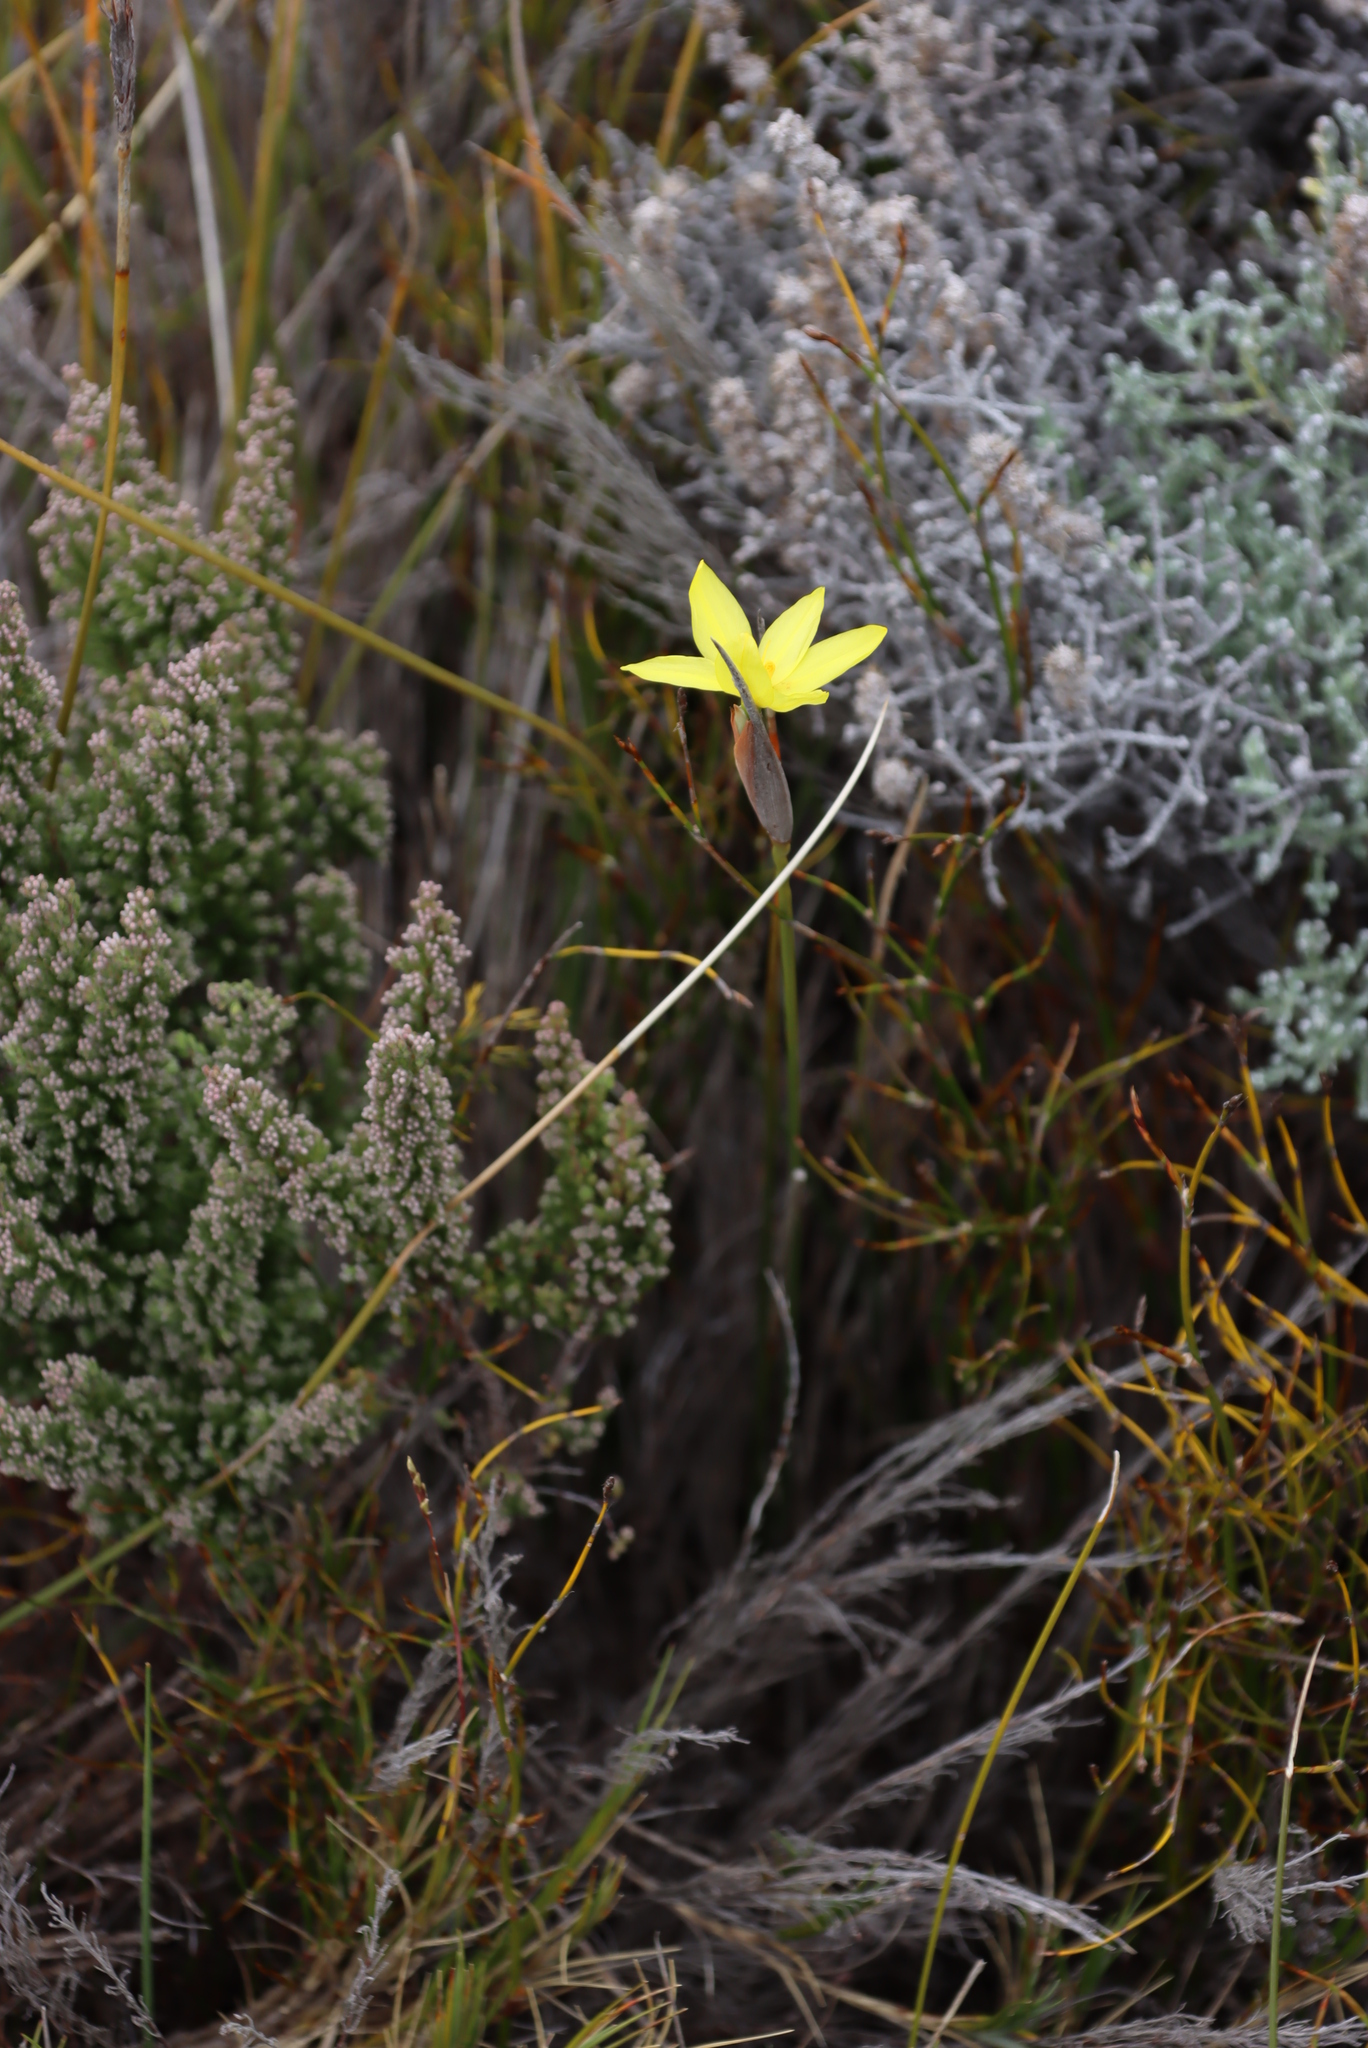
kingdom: Plantae
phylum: Tracheophyta
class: Liliopsida
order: Asparagales
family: Iridaceae
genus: Bobartia
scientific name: Bobartia macrospatha
